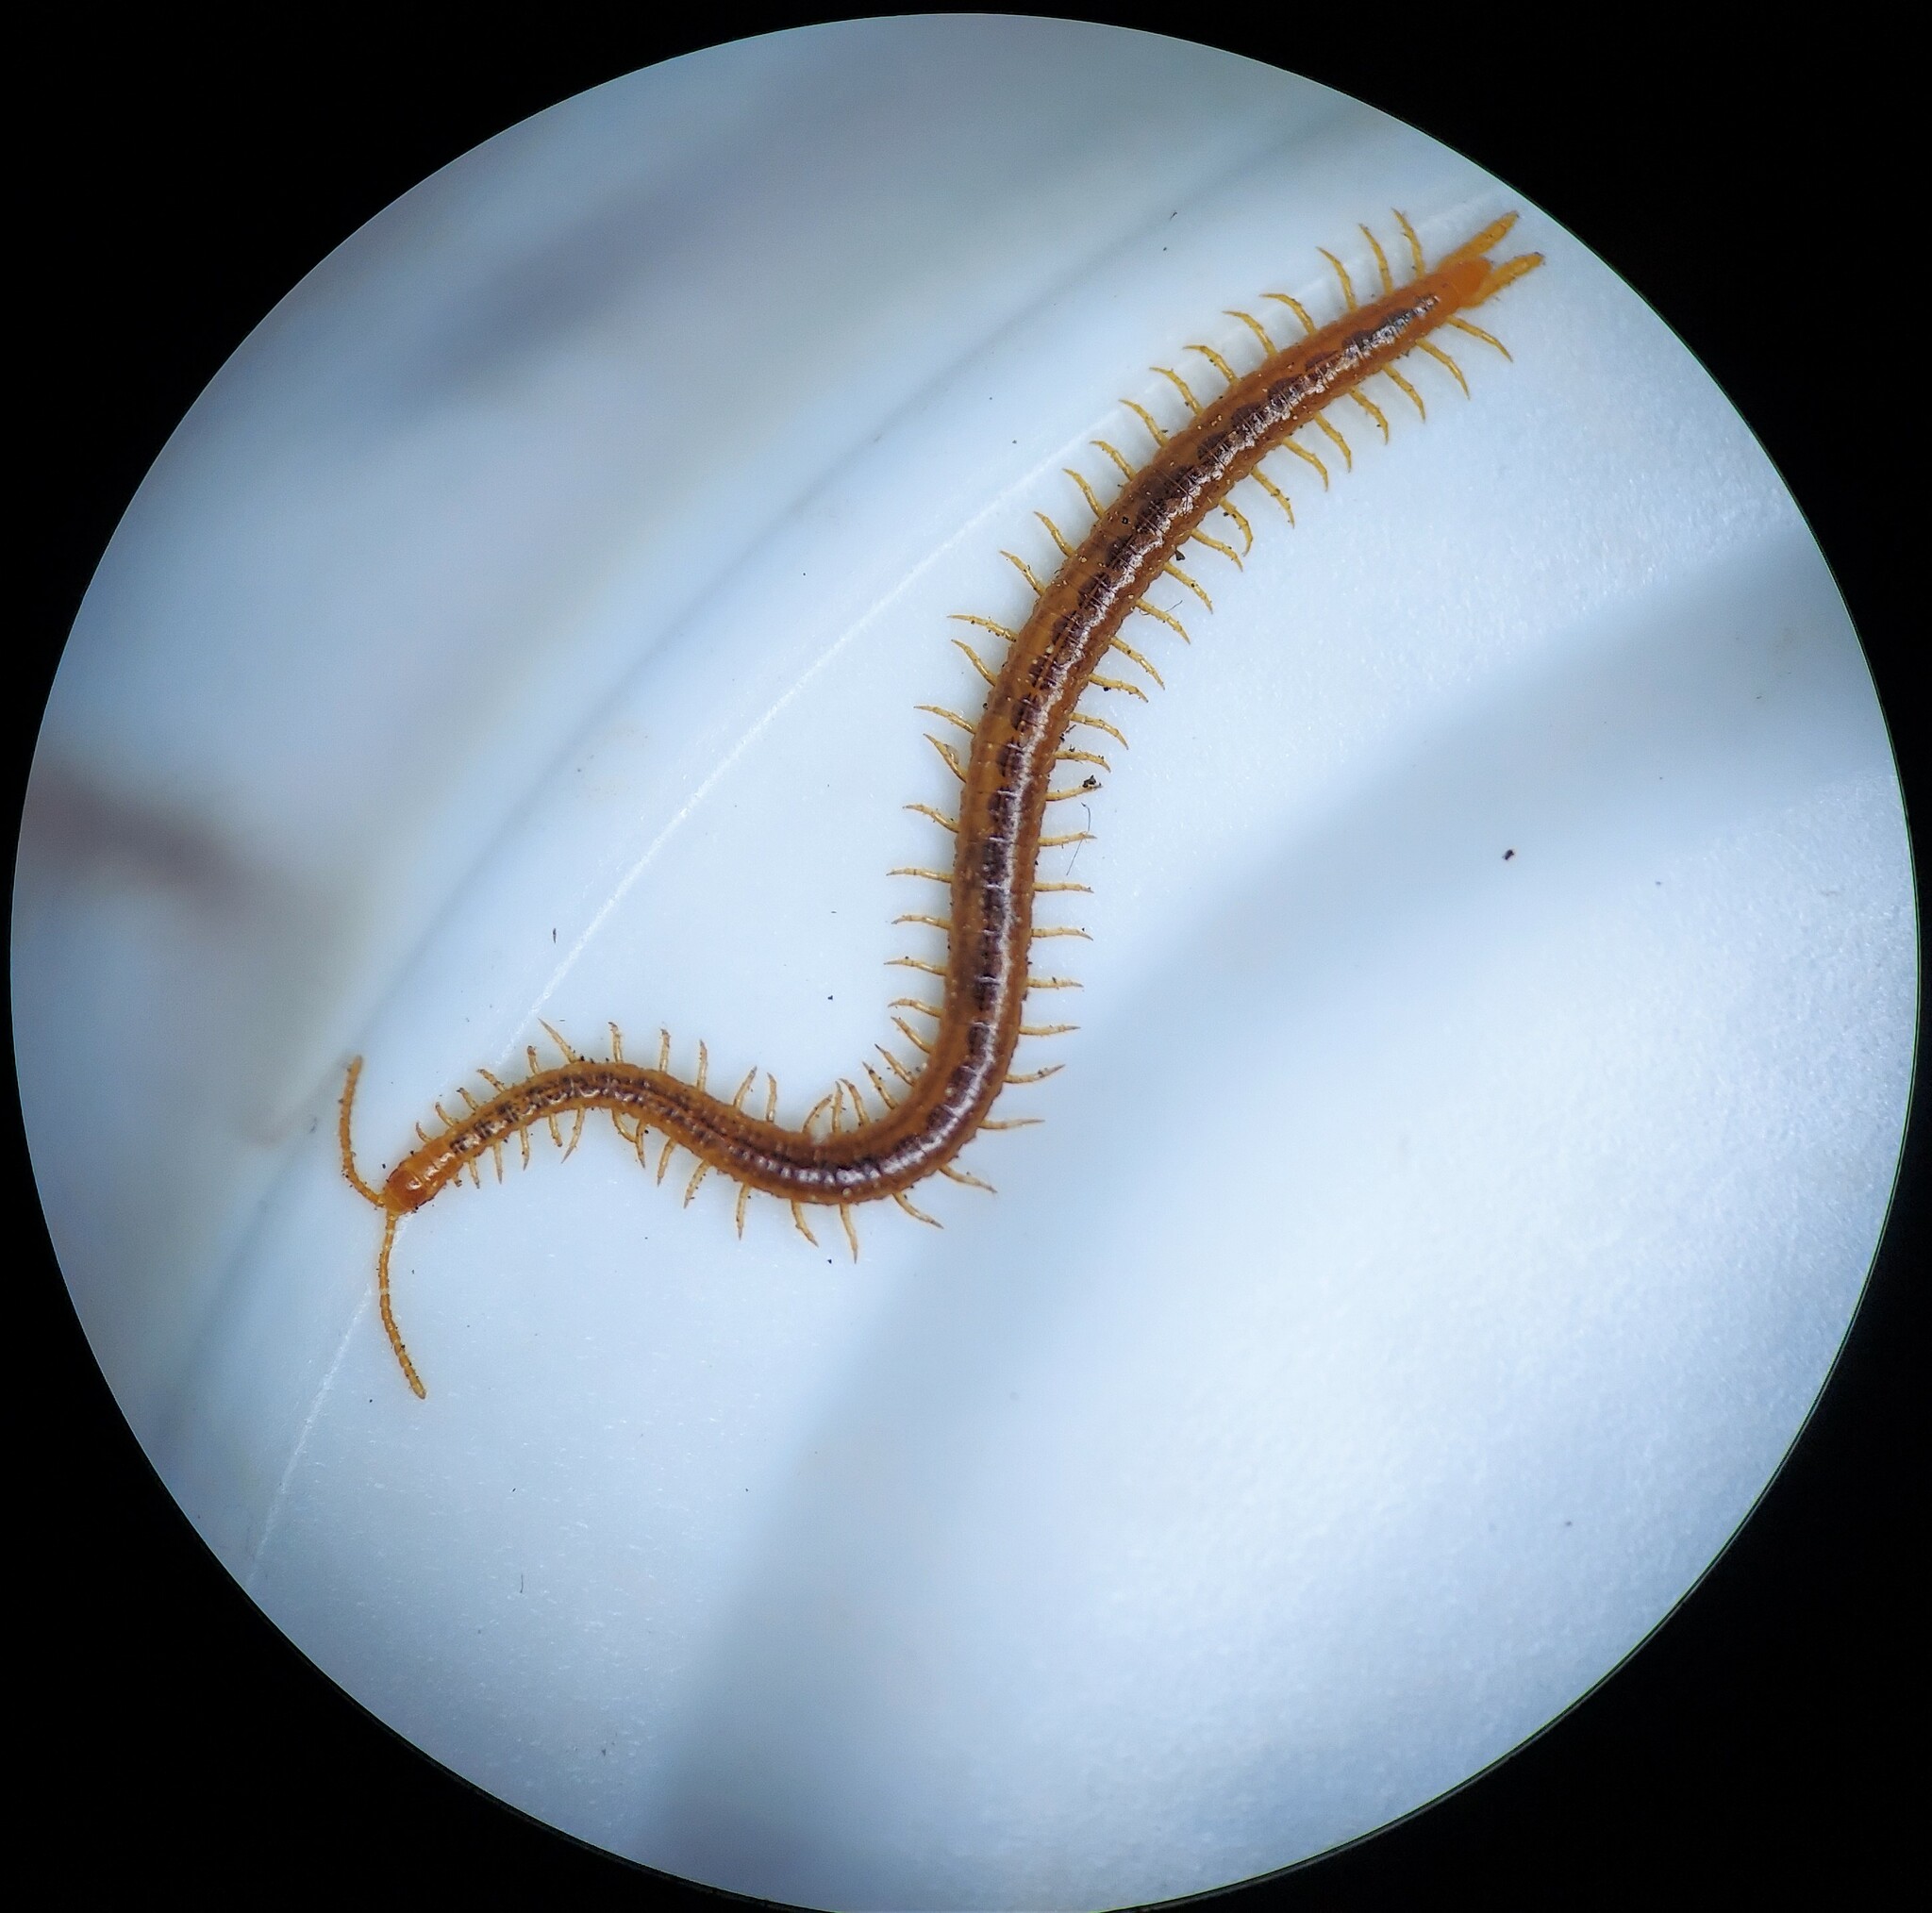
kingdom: Animalia
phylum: Arthropoda
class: Chilopoda
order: Geophilomorpha
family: Linotaeniidae
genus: Strigamia
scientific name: Strigamia branneri
